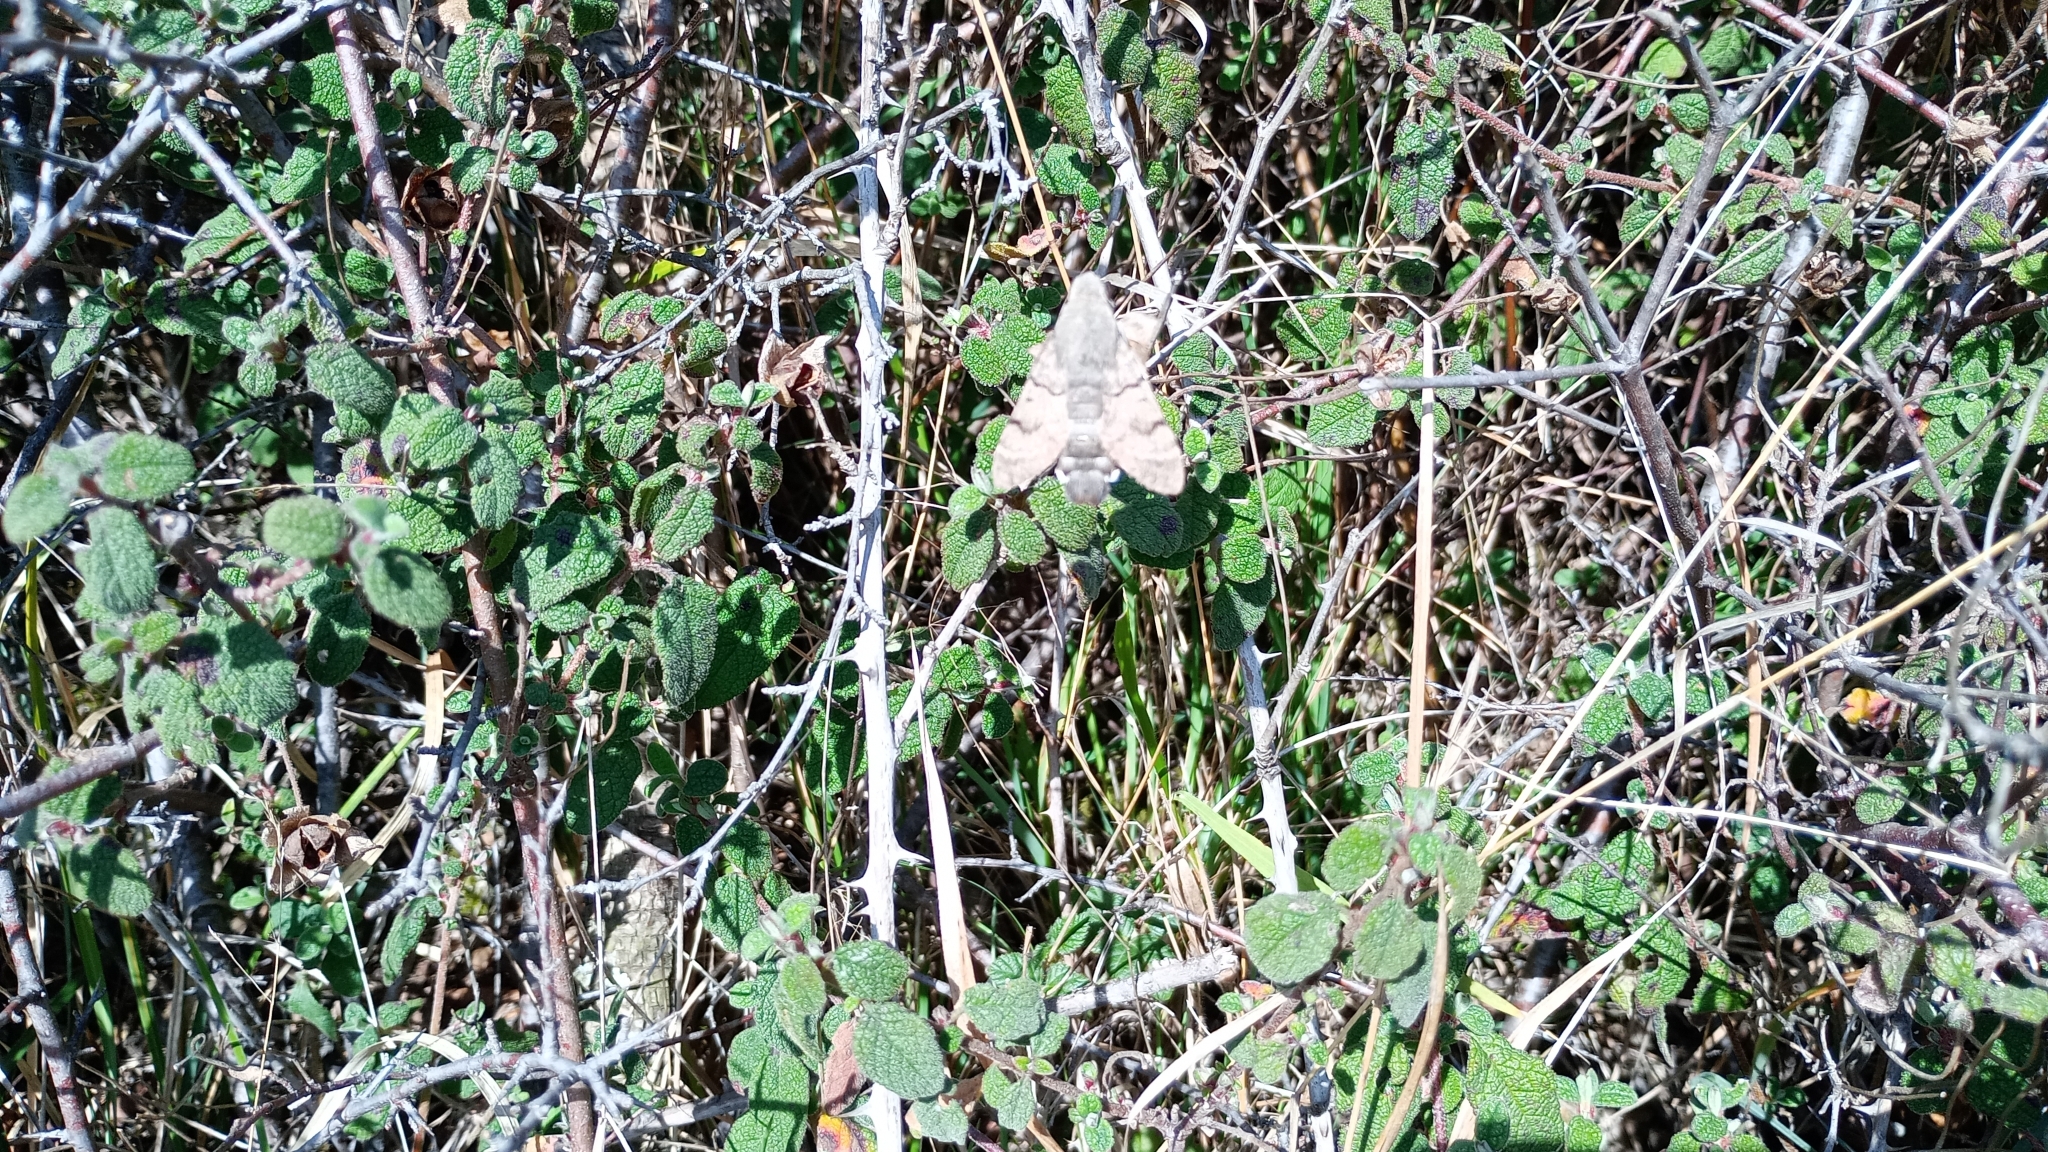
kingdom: Animalia
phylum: Arthropoda
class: Insecta
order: Lepidoptera
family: Sphingidae
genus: Macroglossum
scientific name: Macroglossum stellatarum
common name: Humming-bird hawk-moth
